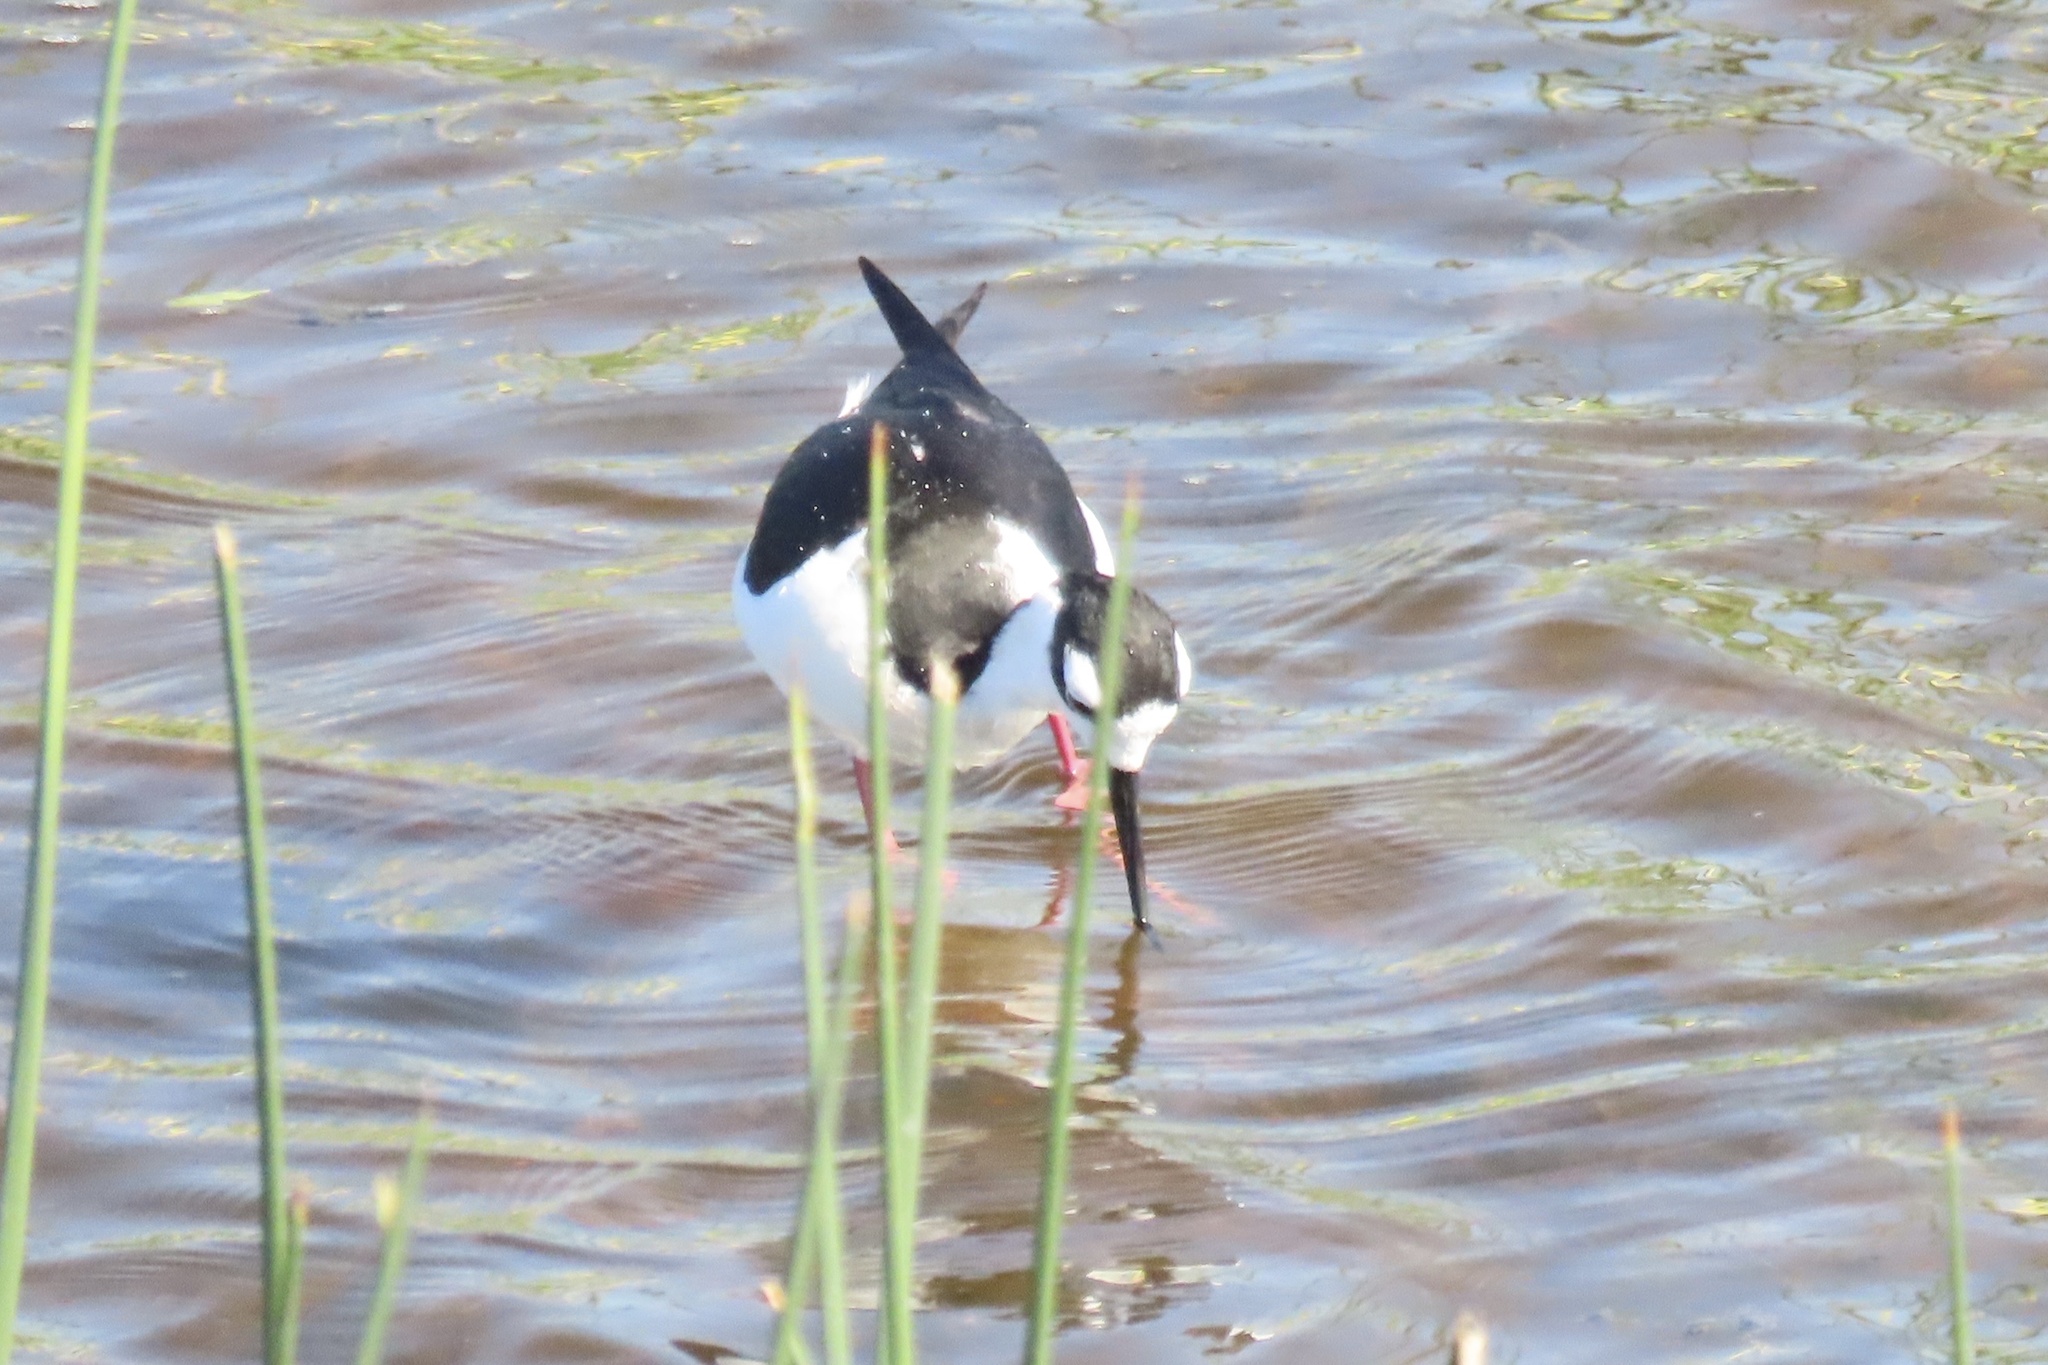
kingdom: Animalia
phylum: Chordata
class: Aves
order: Charadriiformes
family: Recurvirostridae
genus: Himantopus
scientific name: Himantopus mexicanus
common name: Black-necked stilt
